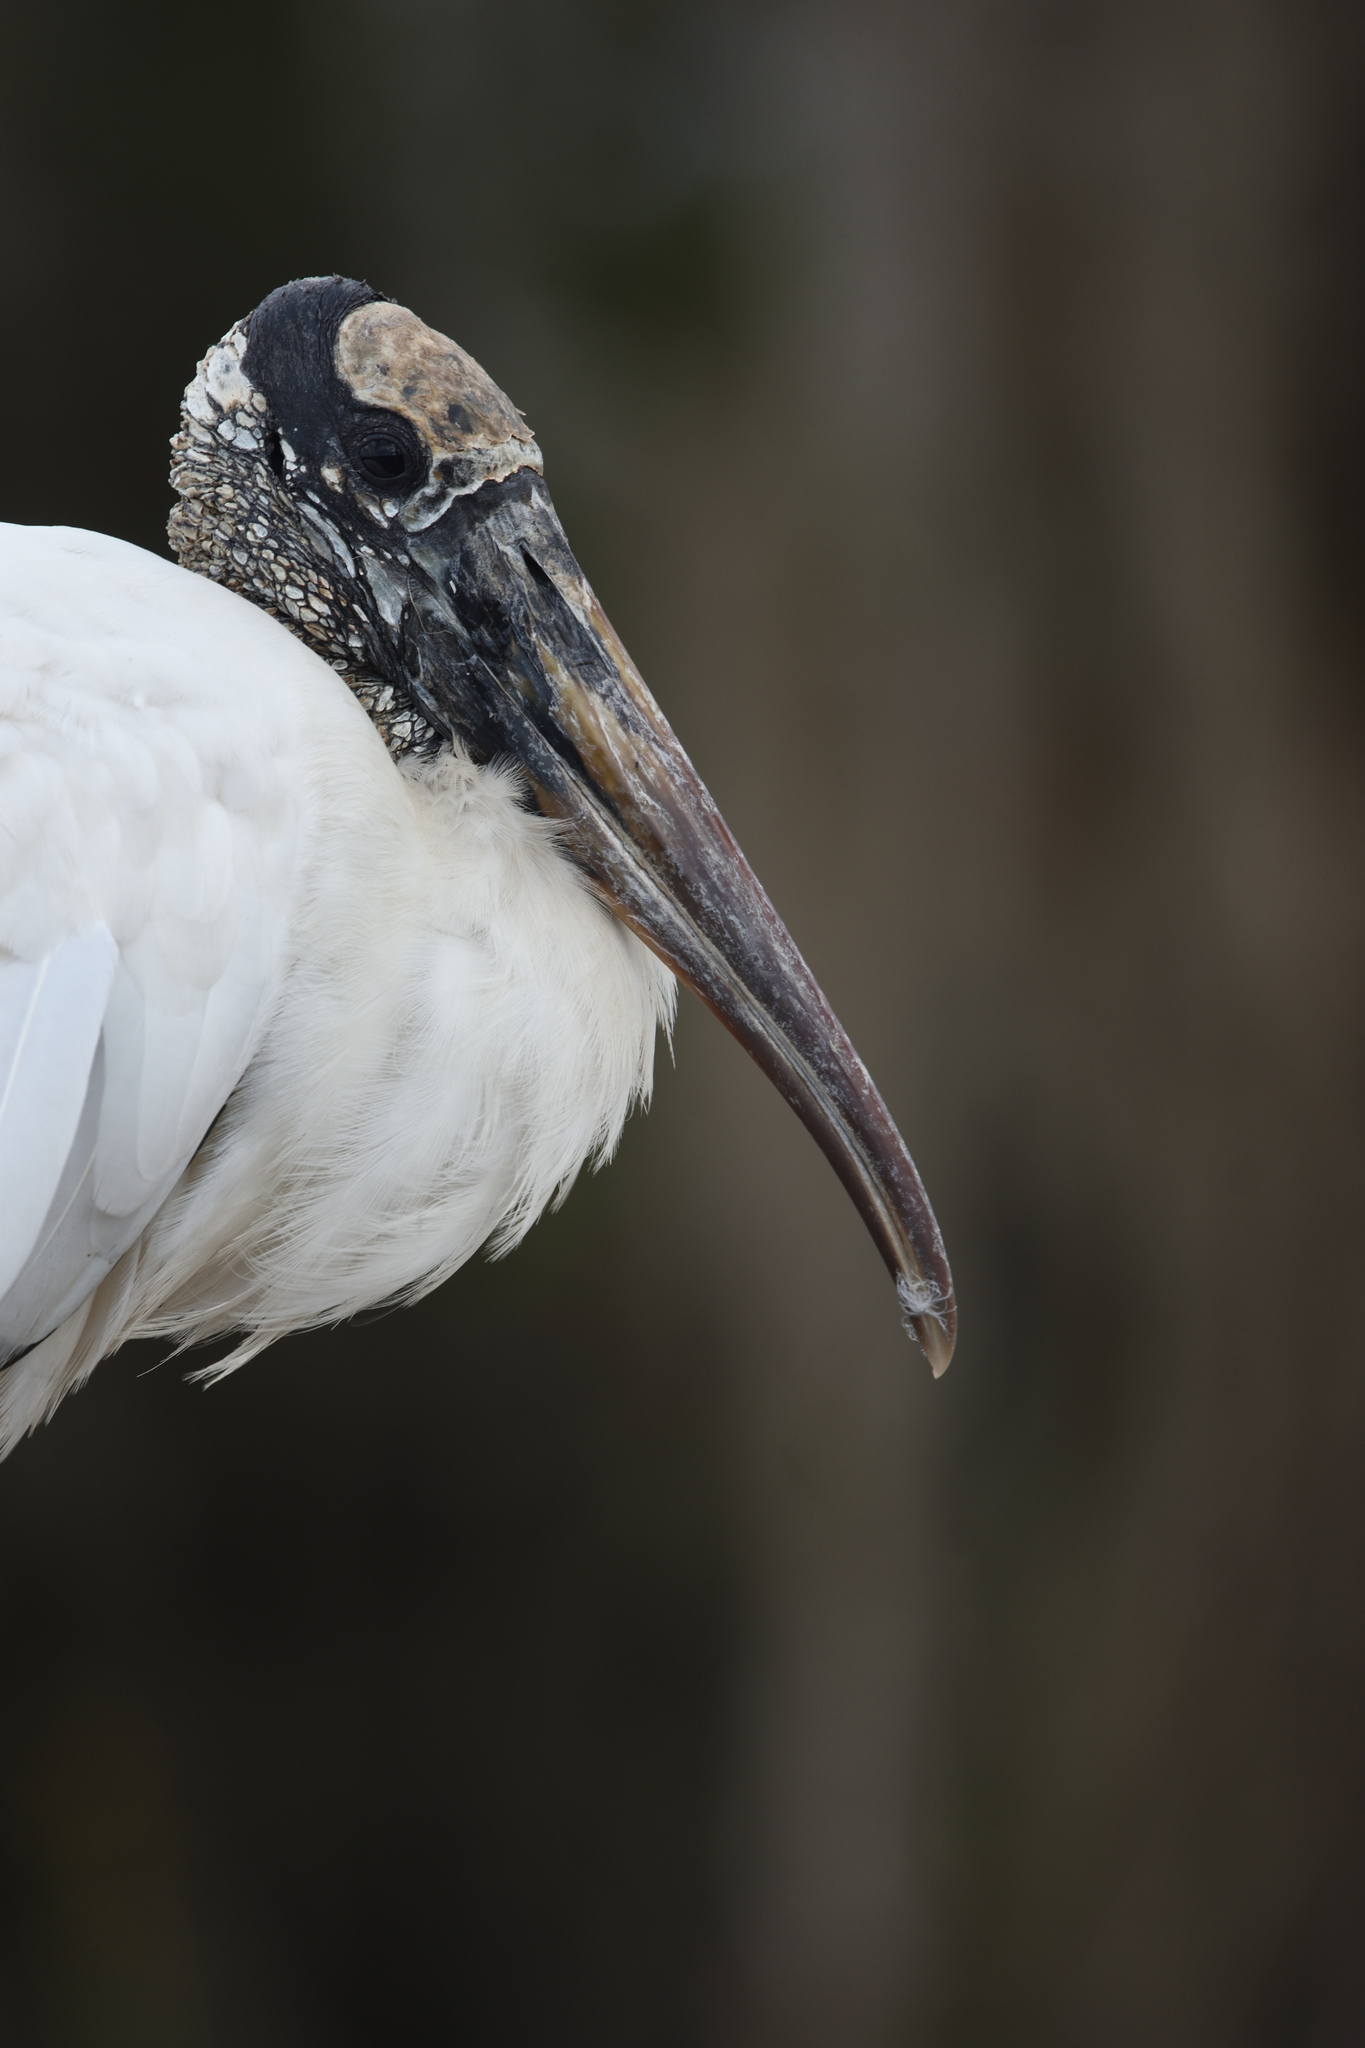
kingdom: Animalia
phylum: Chordata
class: Aves
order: Ciconiiformes
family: Ciconiidae
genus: Mycteria
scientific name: Mycteria americana
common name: Wood stork
